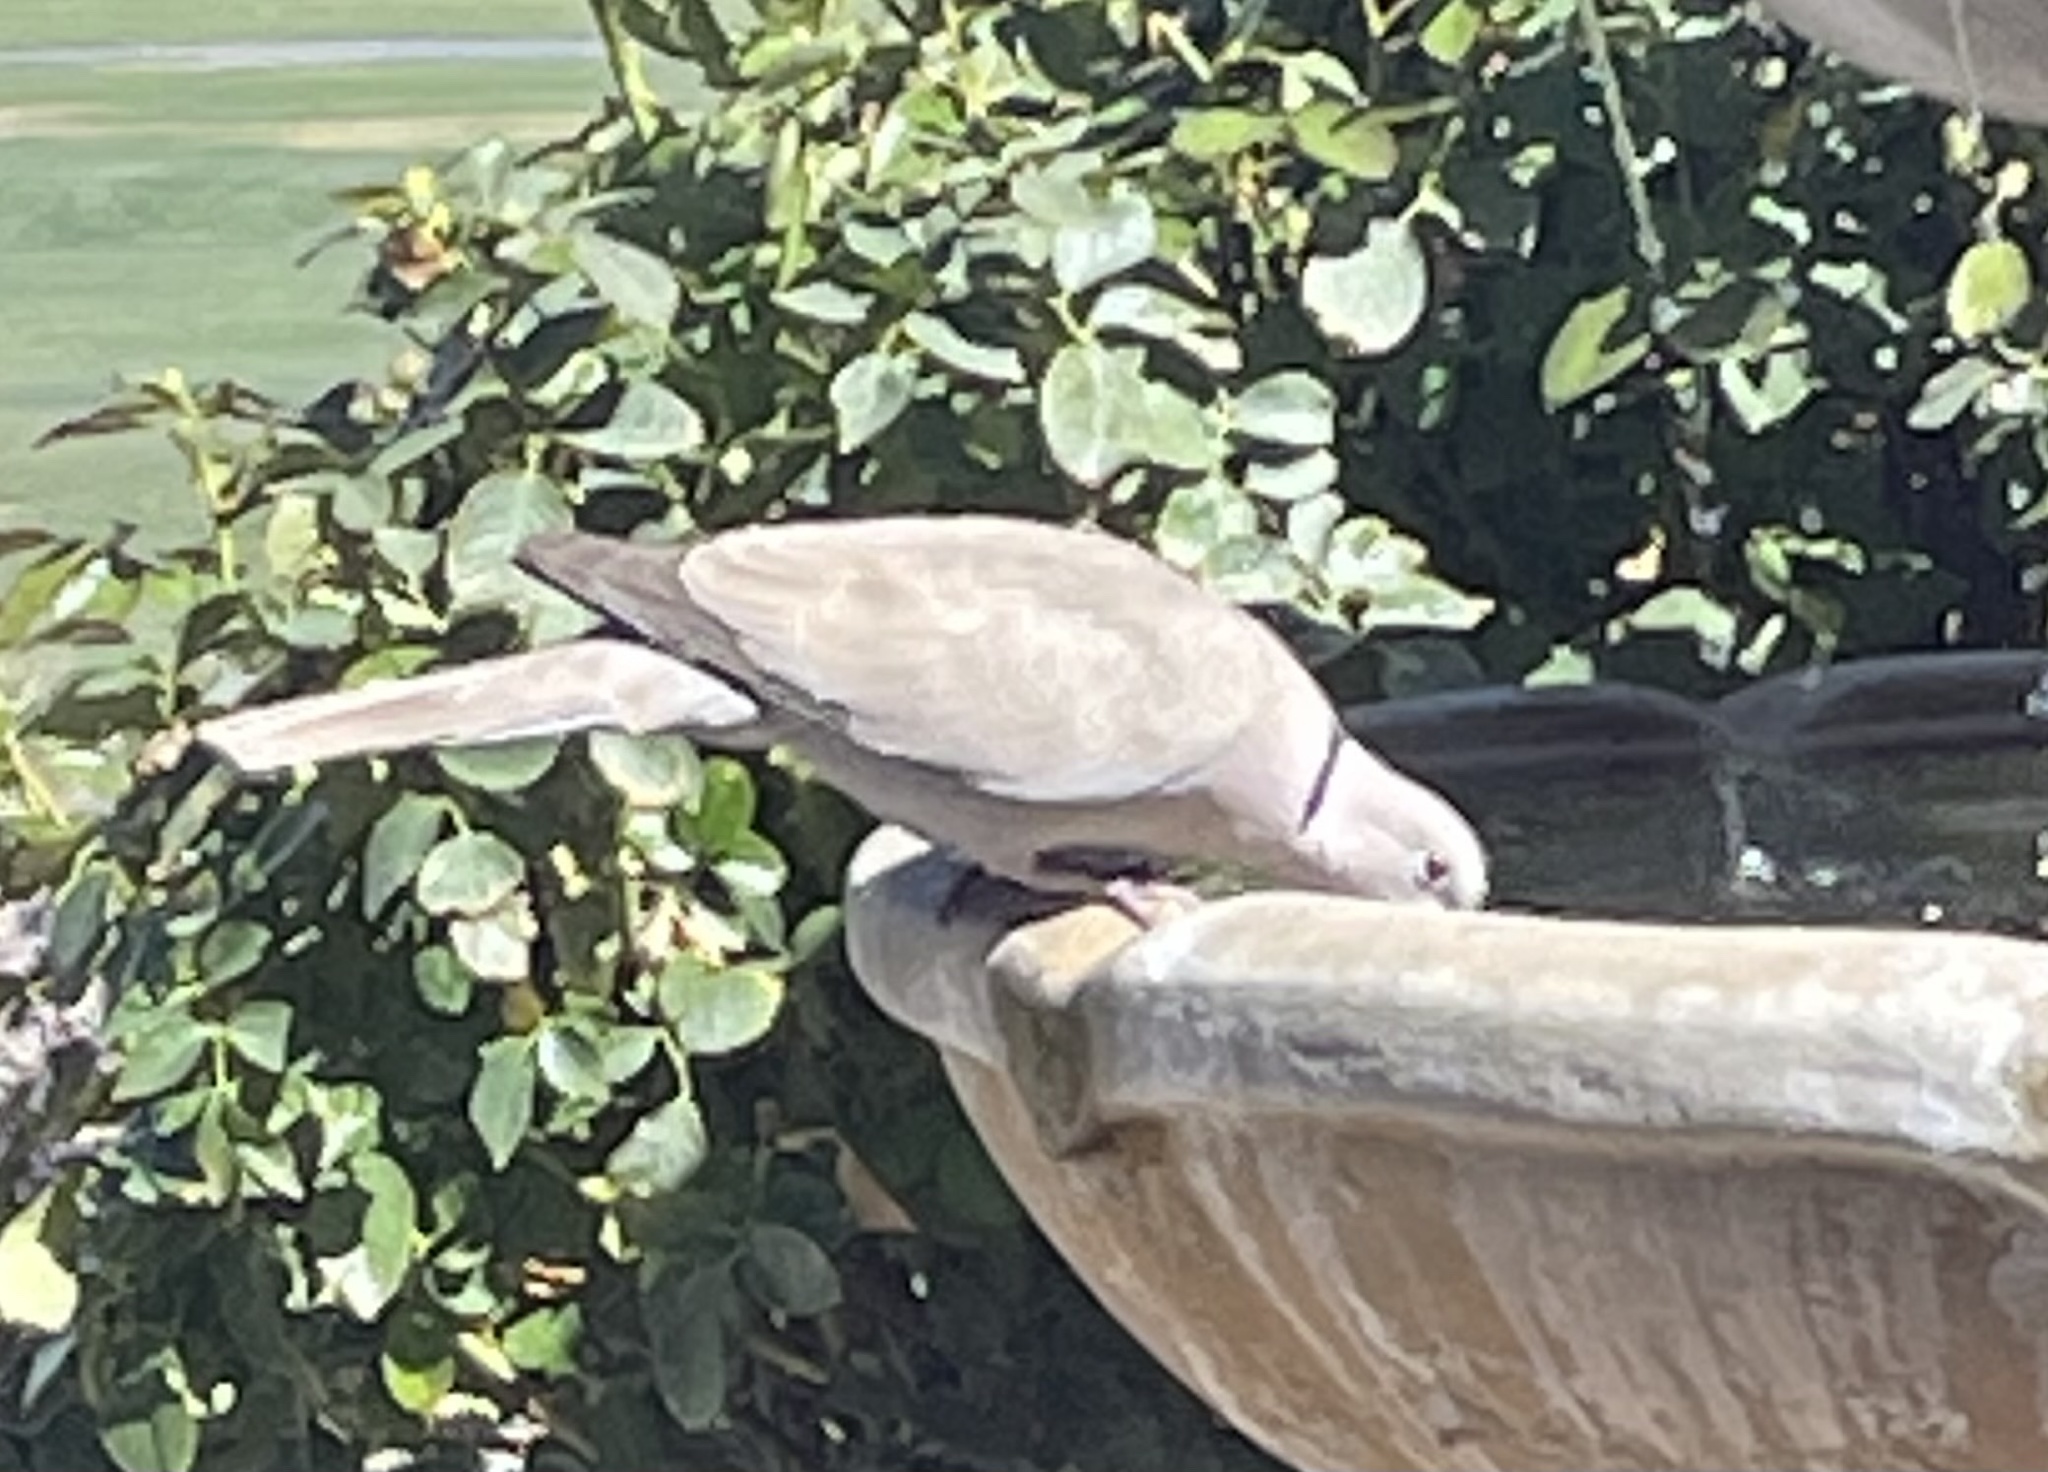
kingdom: Animalia
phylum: Chordata
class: Aves
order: Columbiformes
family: Columbidae
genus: Streptopelia
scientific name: Streptopelia decaocto
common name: Eurasian collared dove
